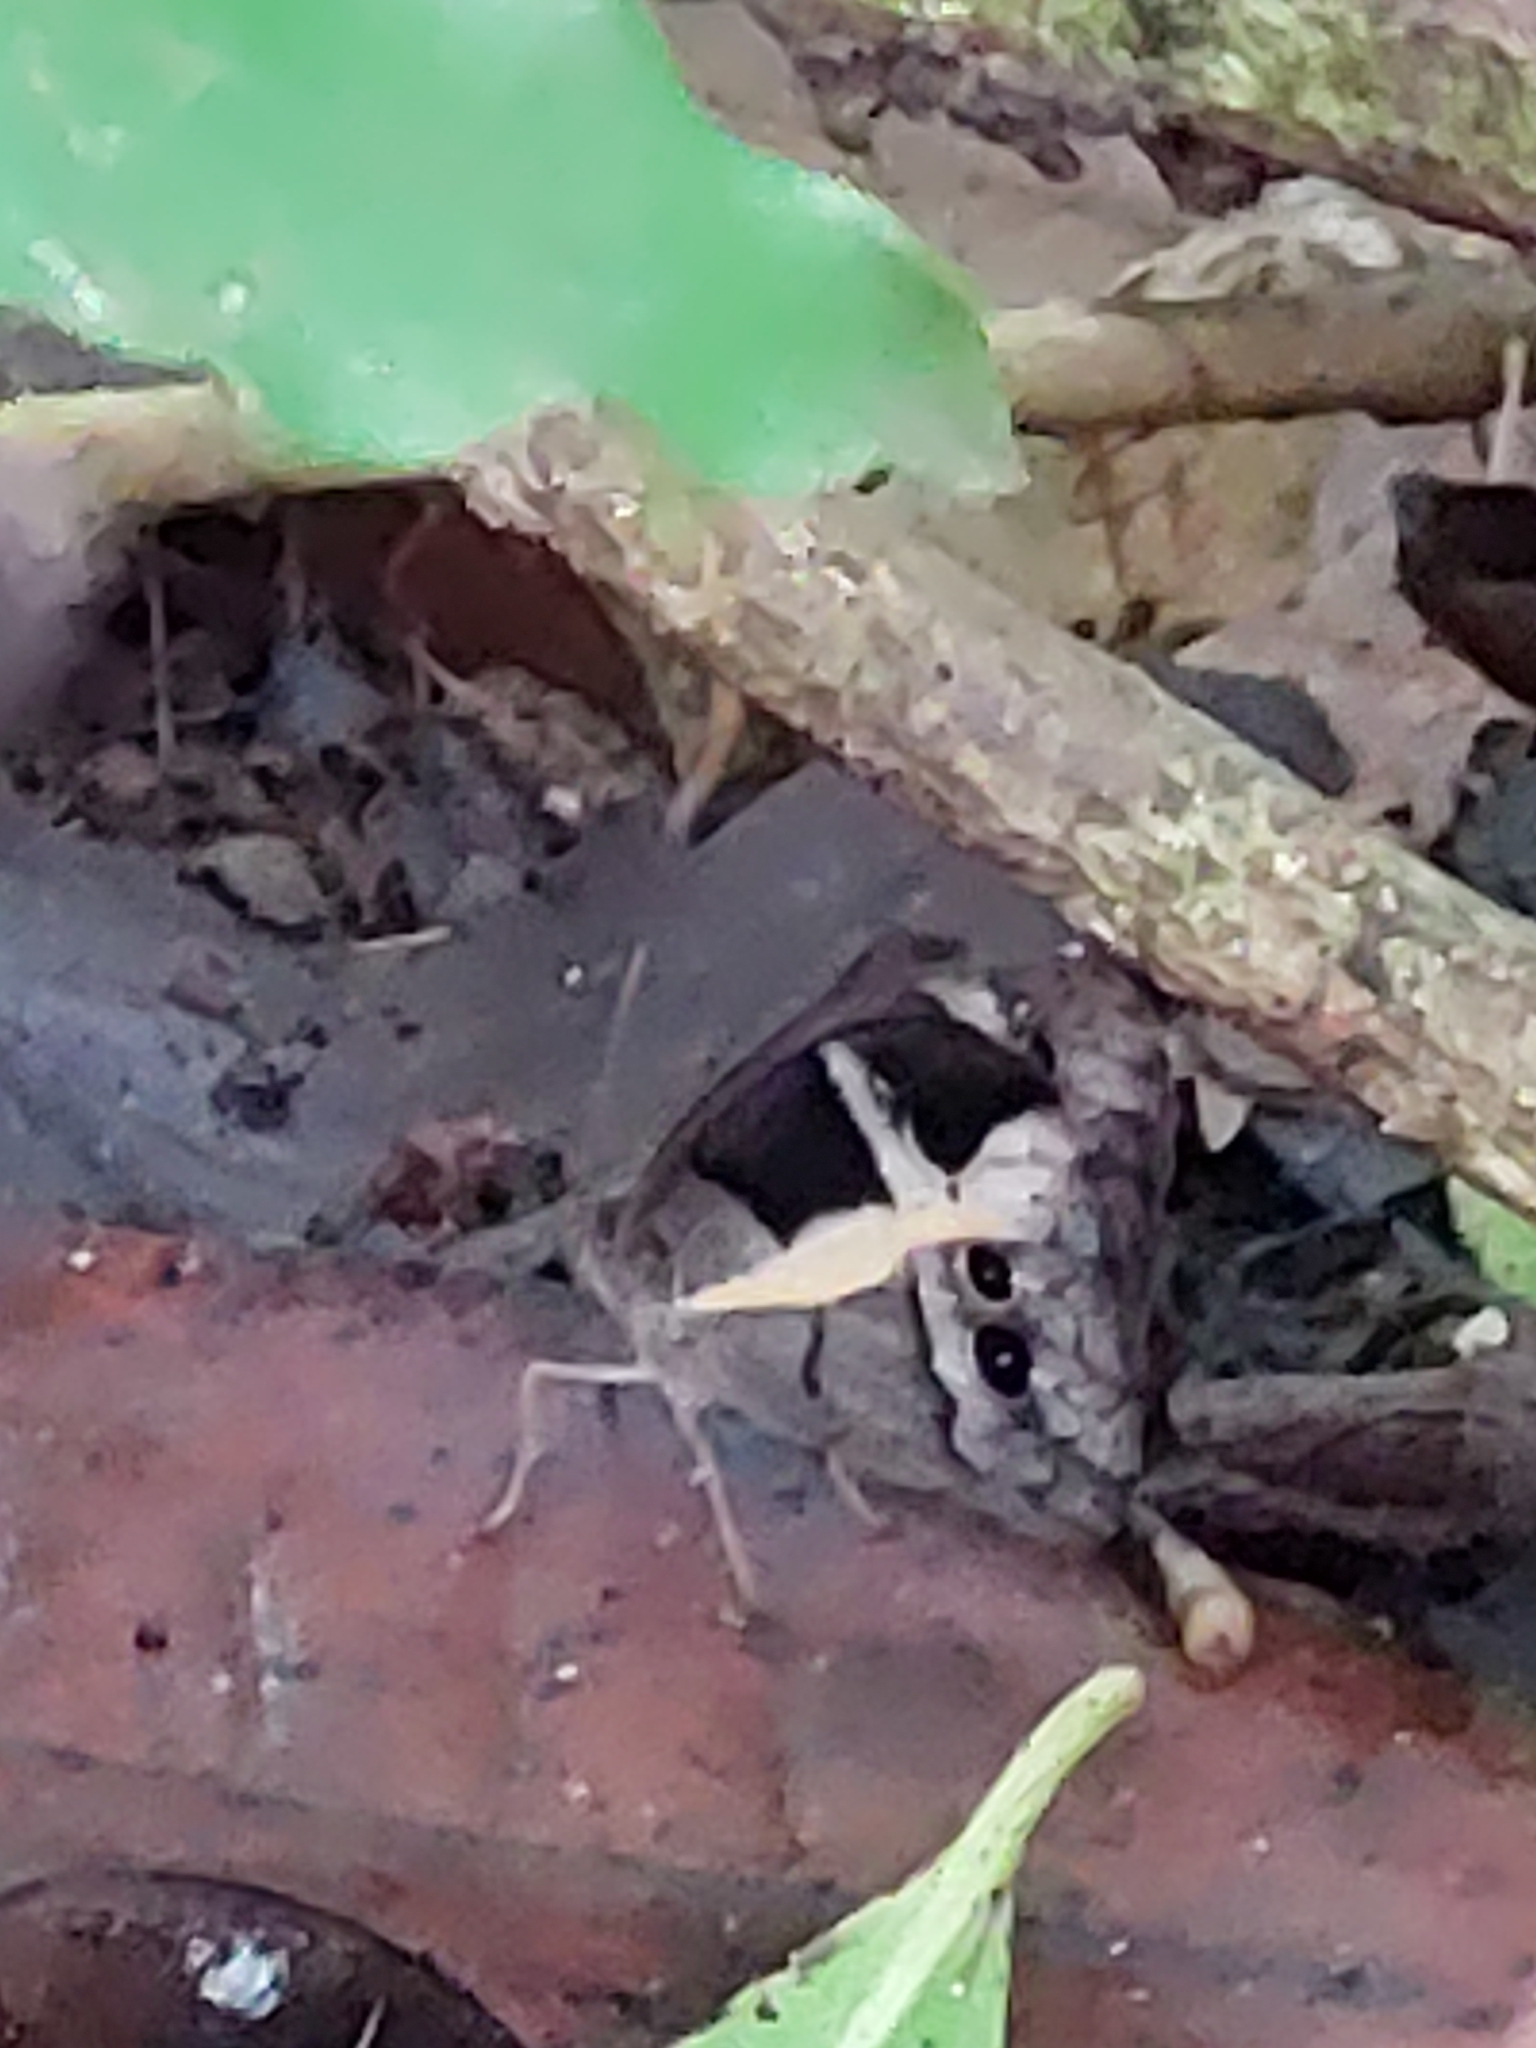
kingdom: Animalia
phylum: Arthropoda
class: Insecta
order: Lepidoptera
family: Nymphalidae
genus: Posttaygetis
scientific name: Posttaygetis penelea
